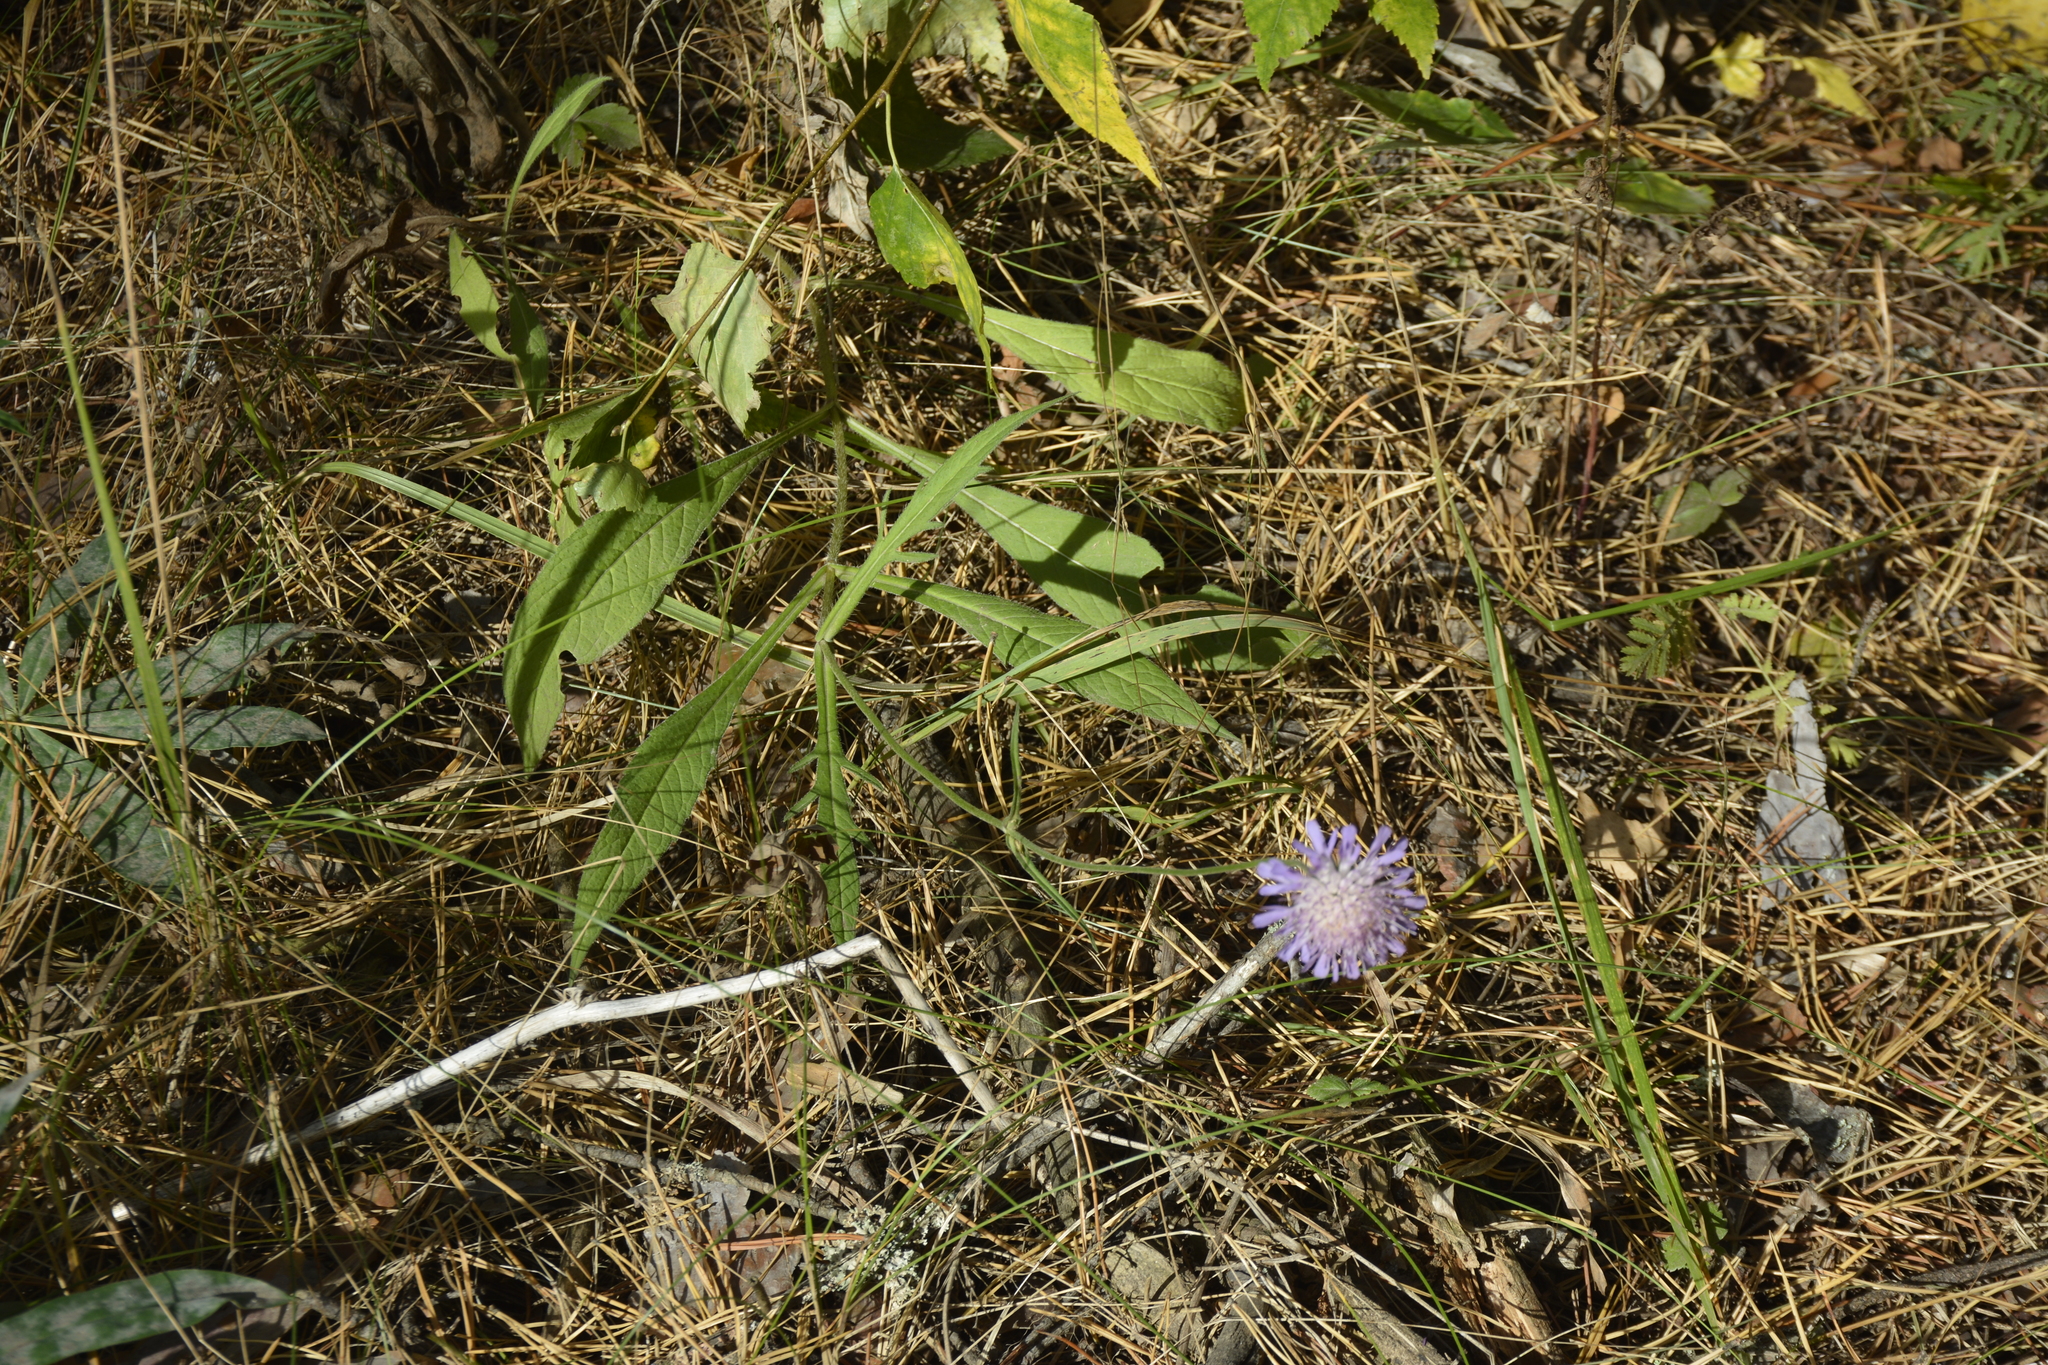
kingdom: Plantae
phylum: Tracheophyta
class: Magnoliopsida
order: Dipsacales
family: Caprifoliaceae
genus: Knautia
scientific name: Knautia arvensis
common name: Field scabiosa
